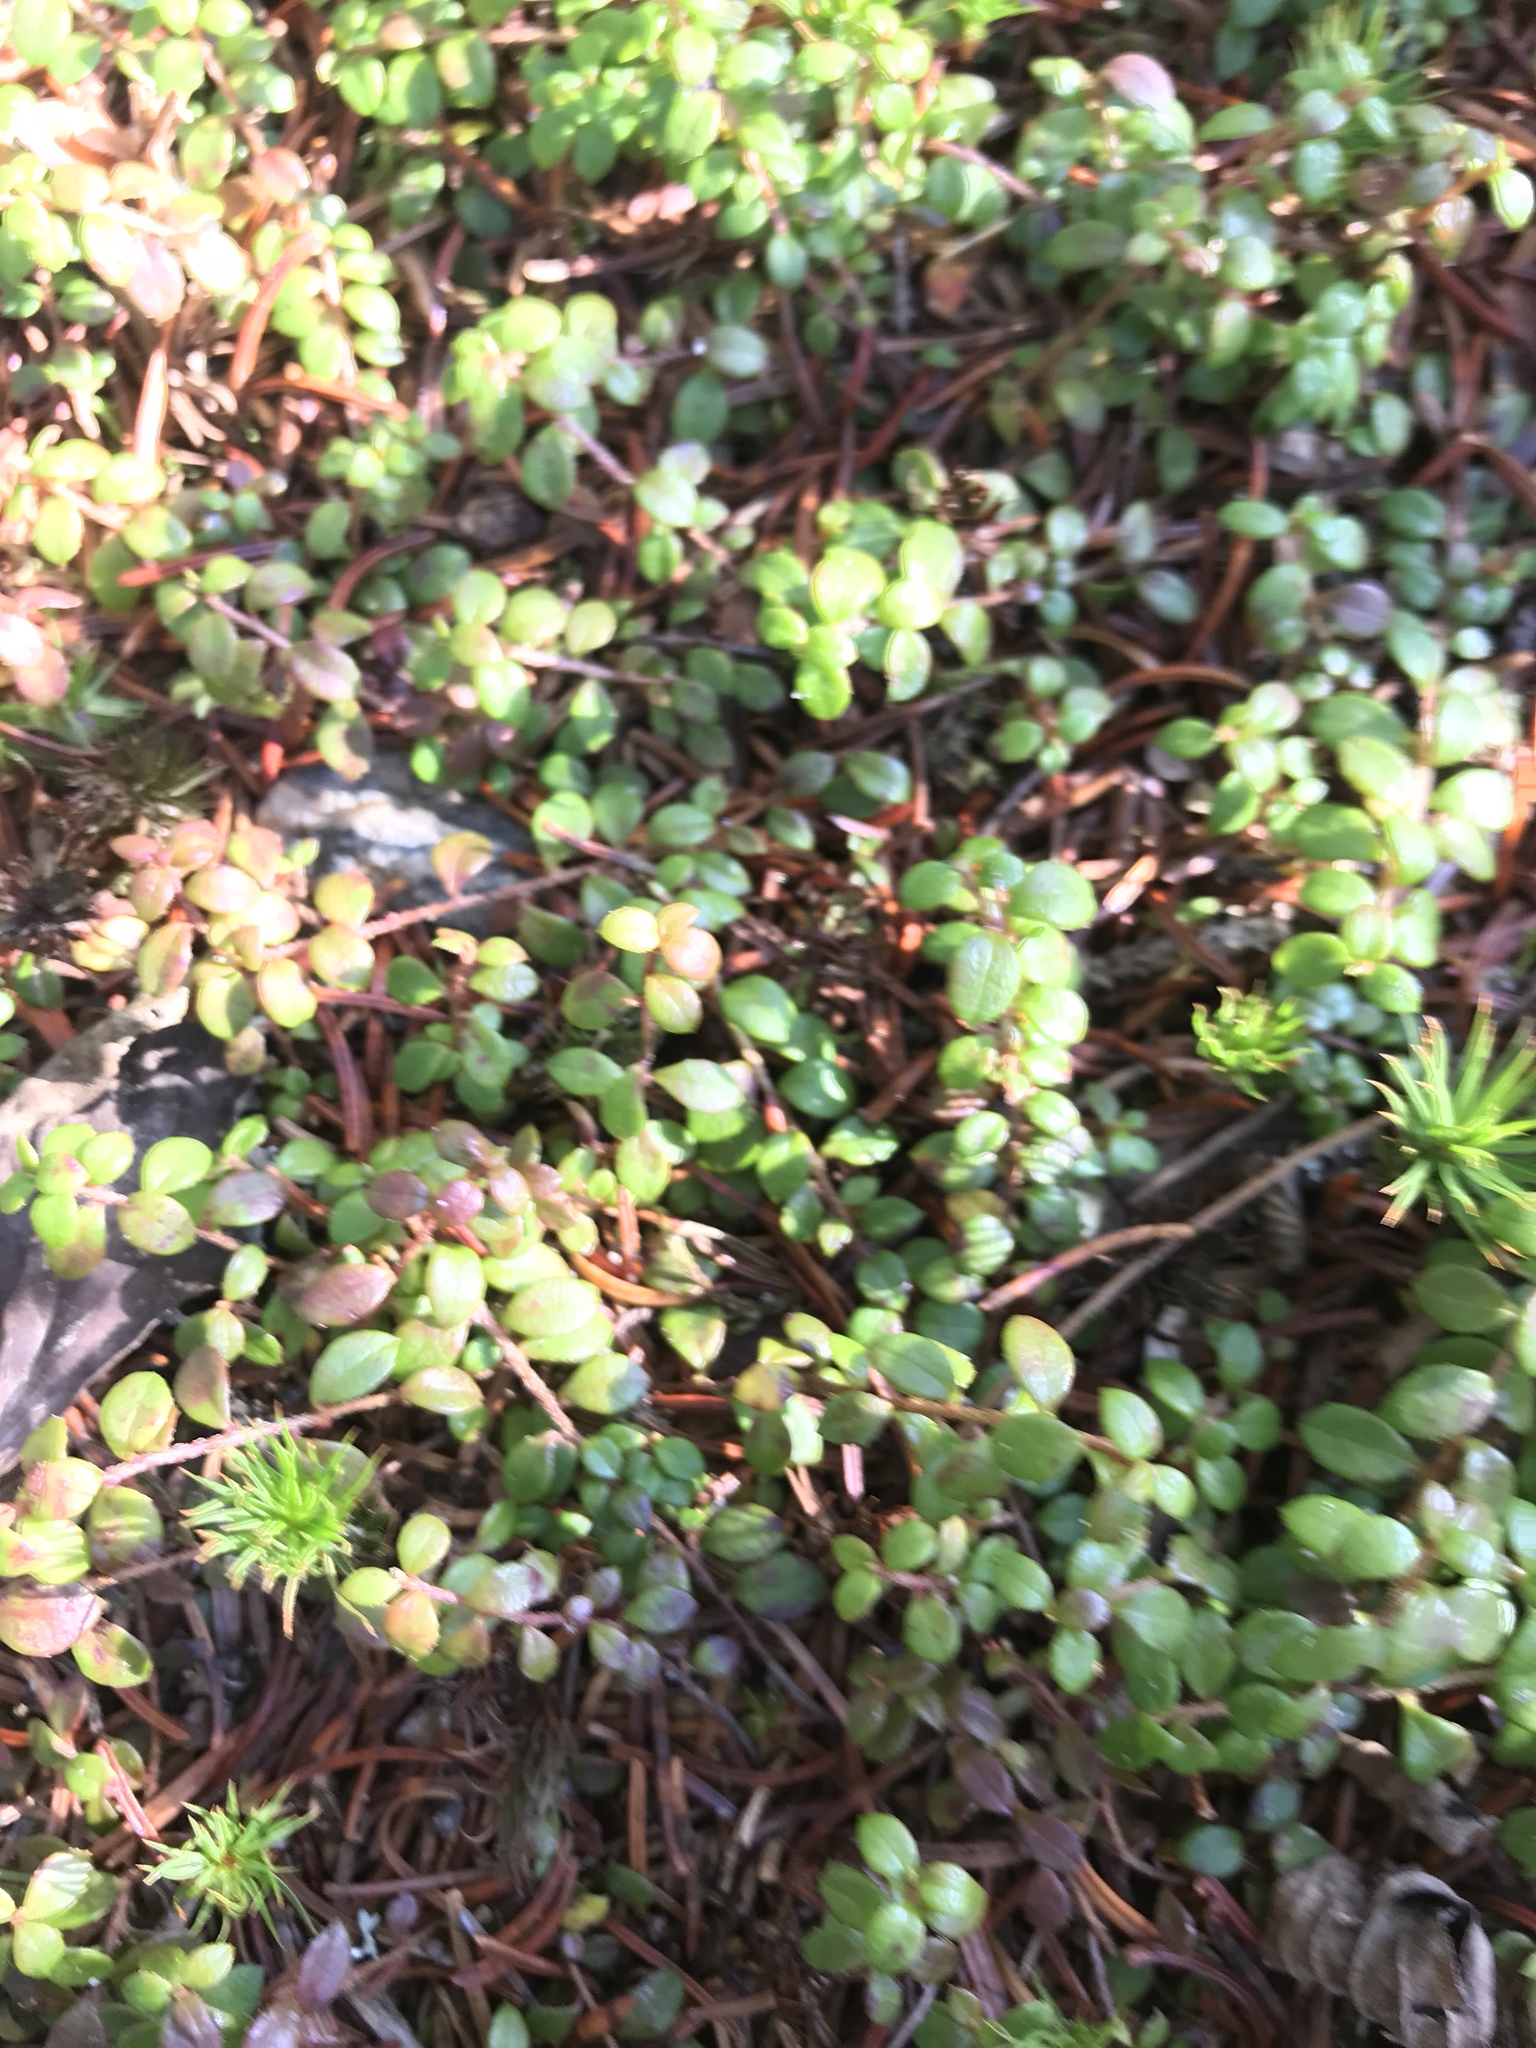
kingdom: Plantae
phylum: Tracheophyta
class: Magnoliopsida
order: Ericales
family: Ericaceae
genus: Gaultheria
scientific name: Gaultheria hispidula
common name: Cancer wintergreen
